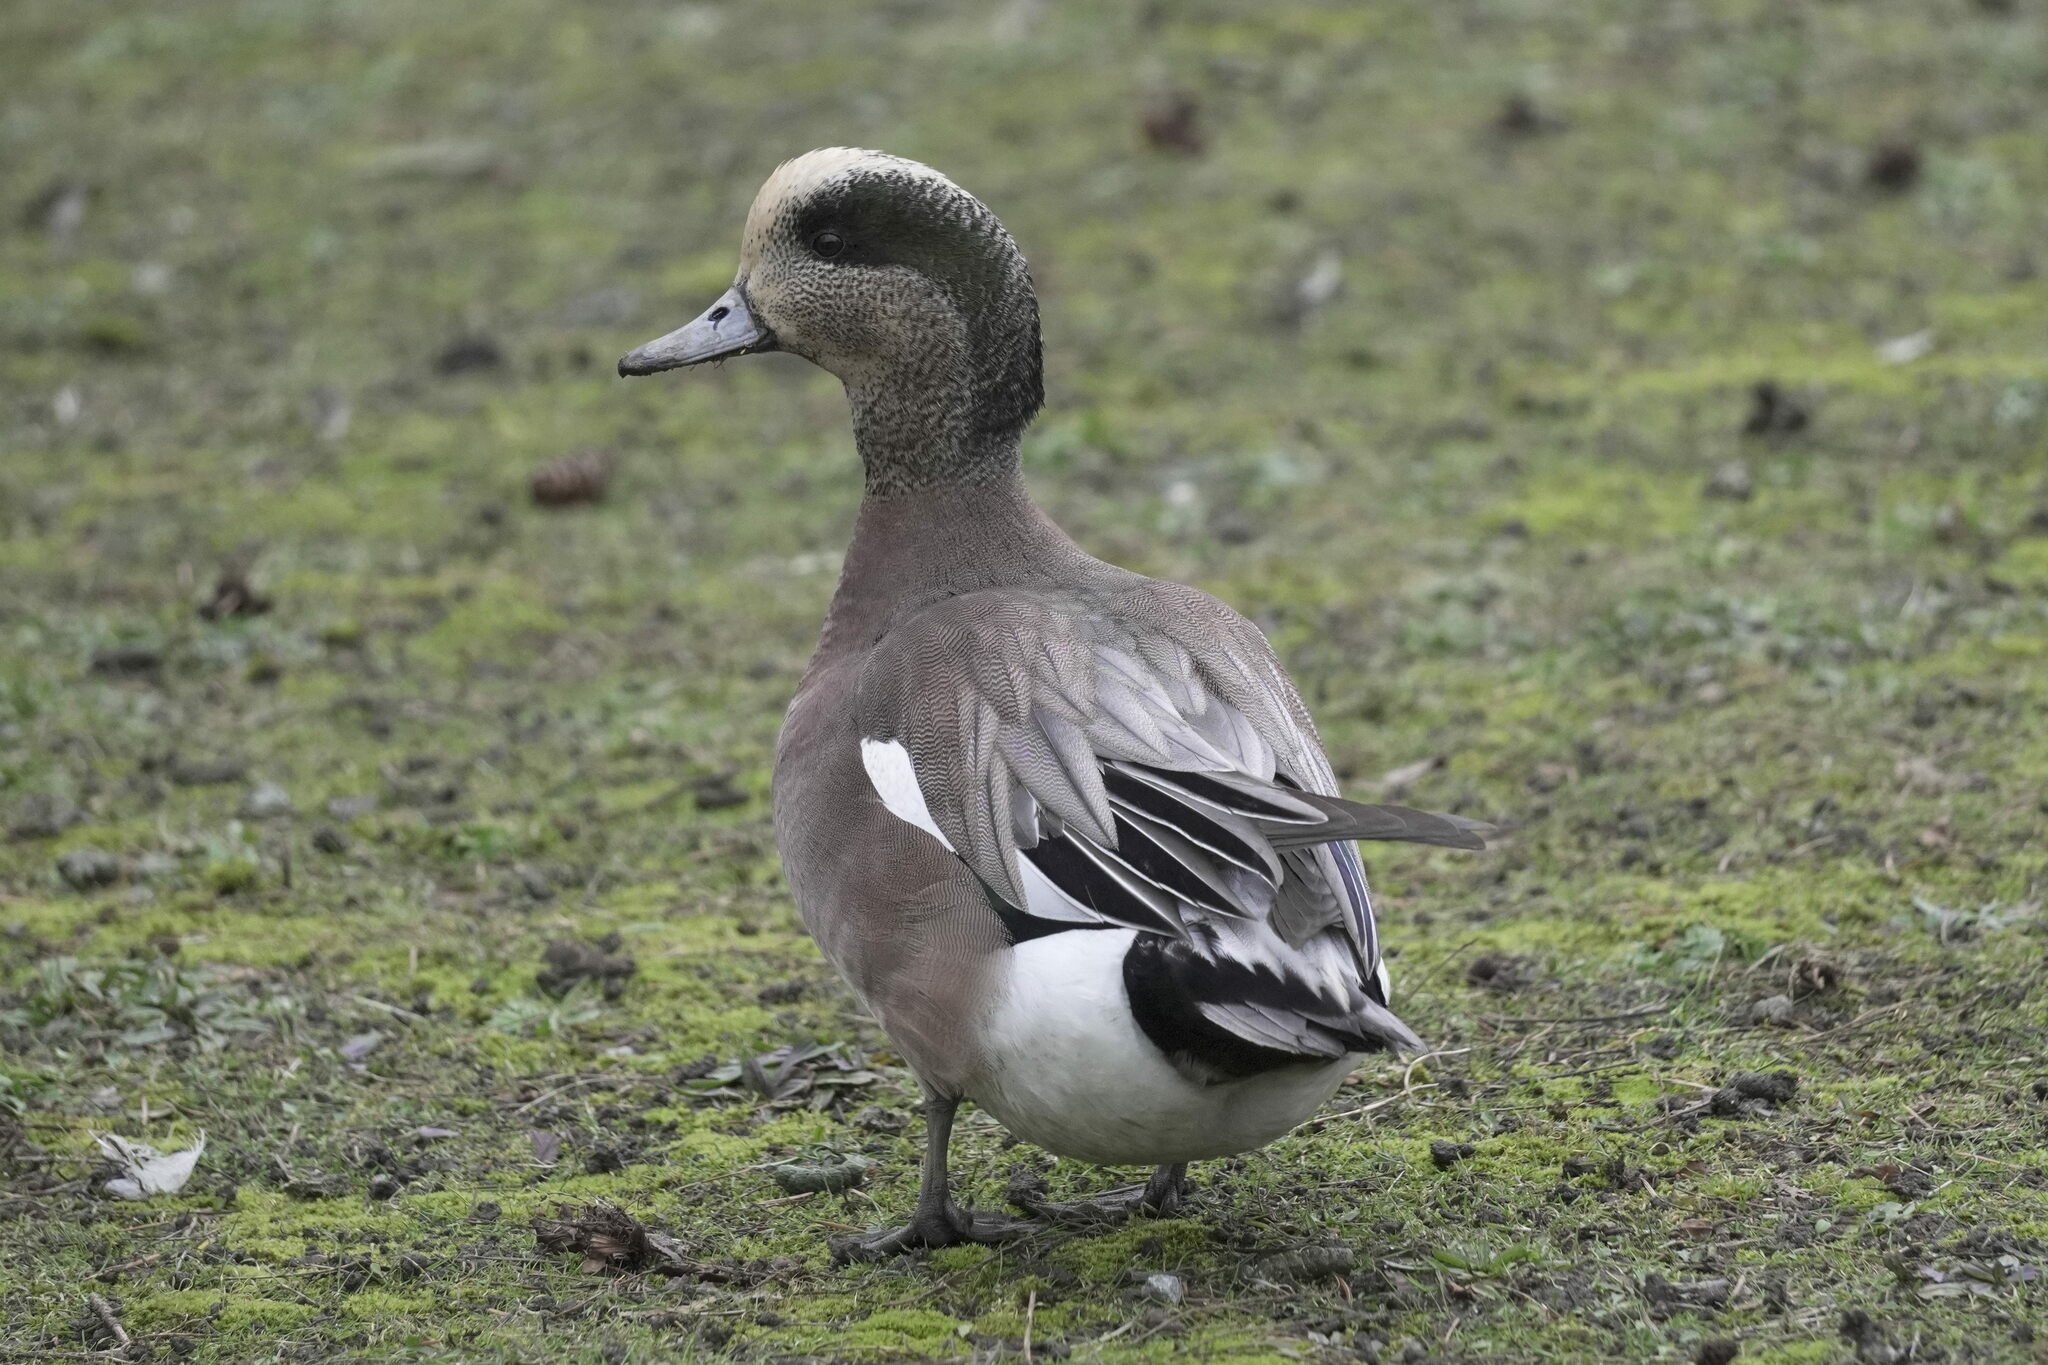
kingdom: Animalia
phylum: Chordata
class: Aves
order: Anseriformes
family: Anatidae
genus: Mareca
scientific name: Mareca americana
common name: American wigeon
